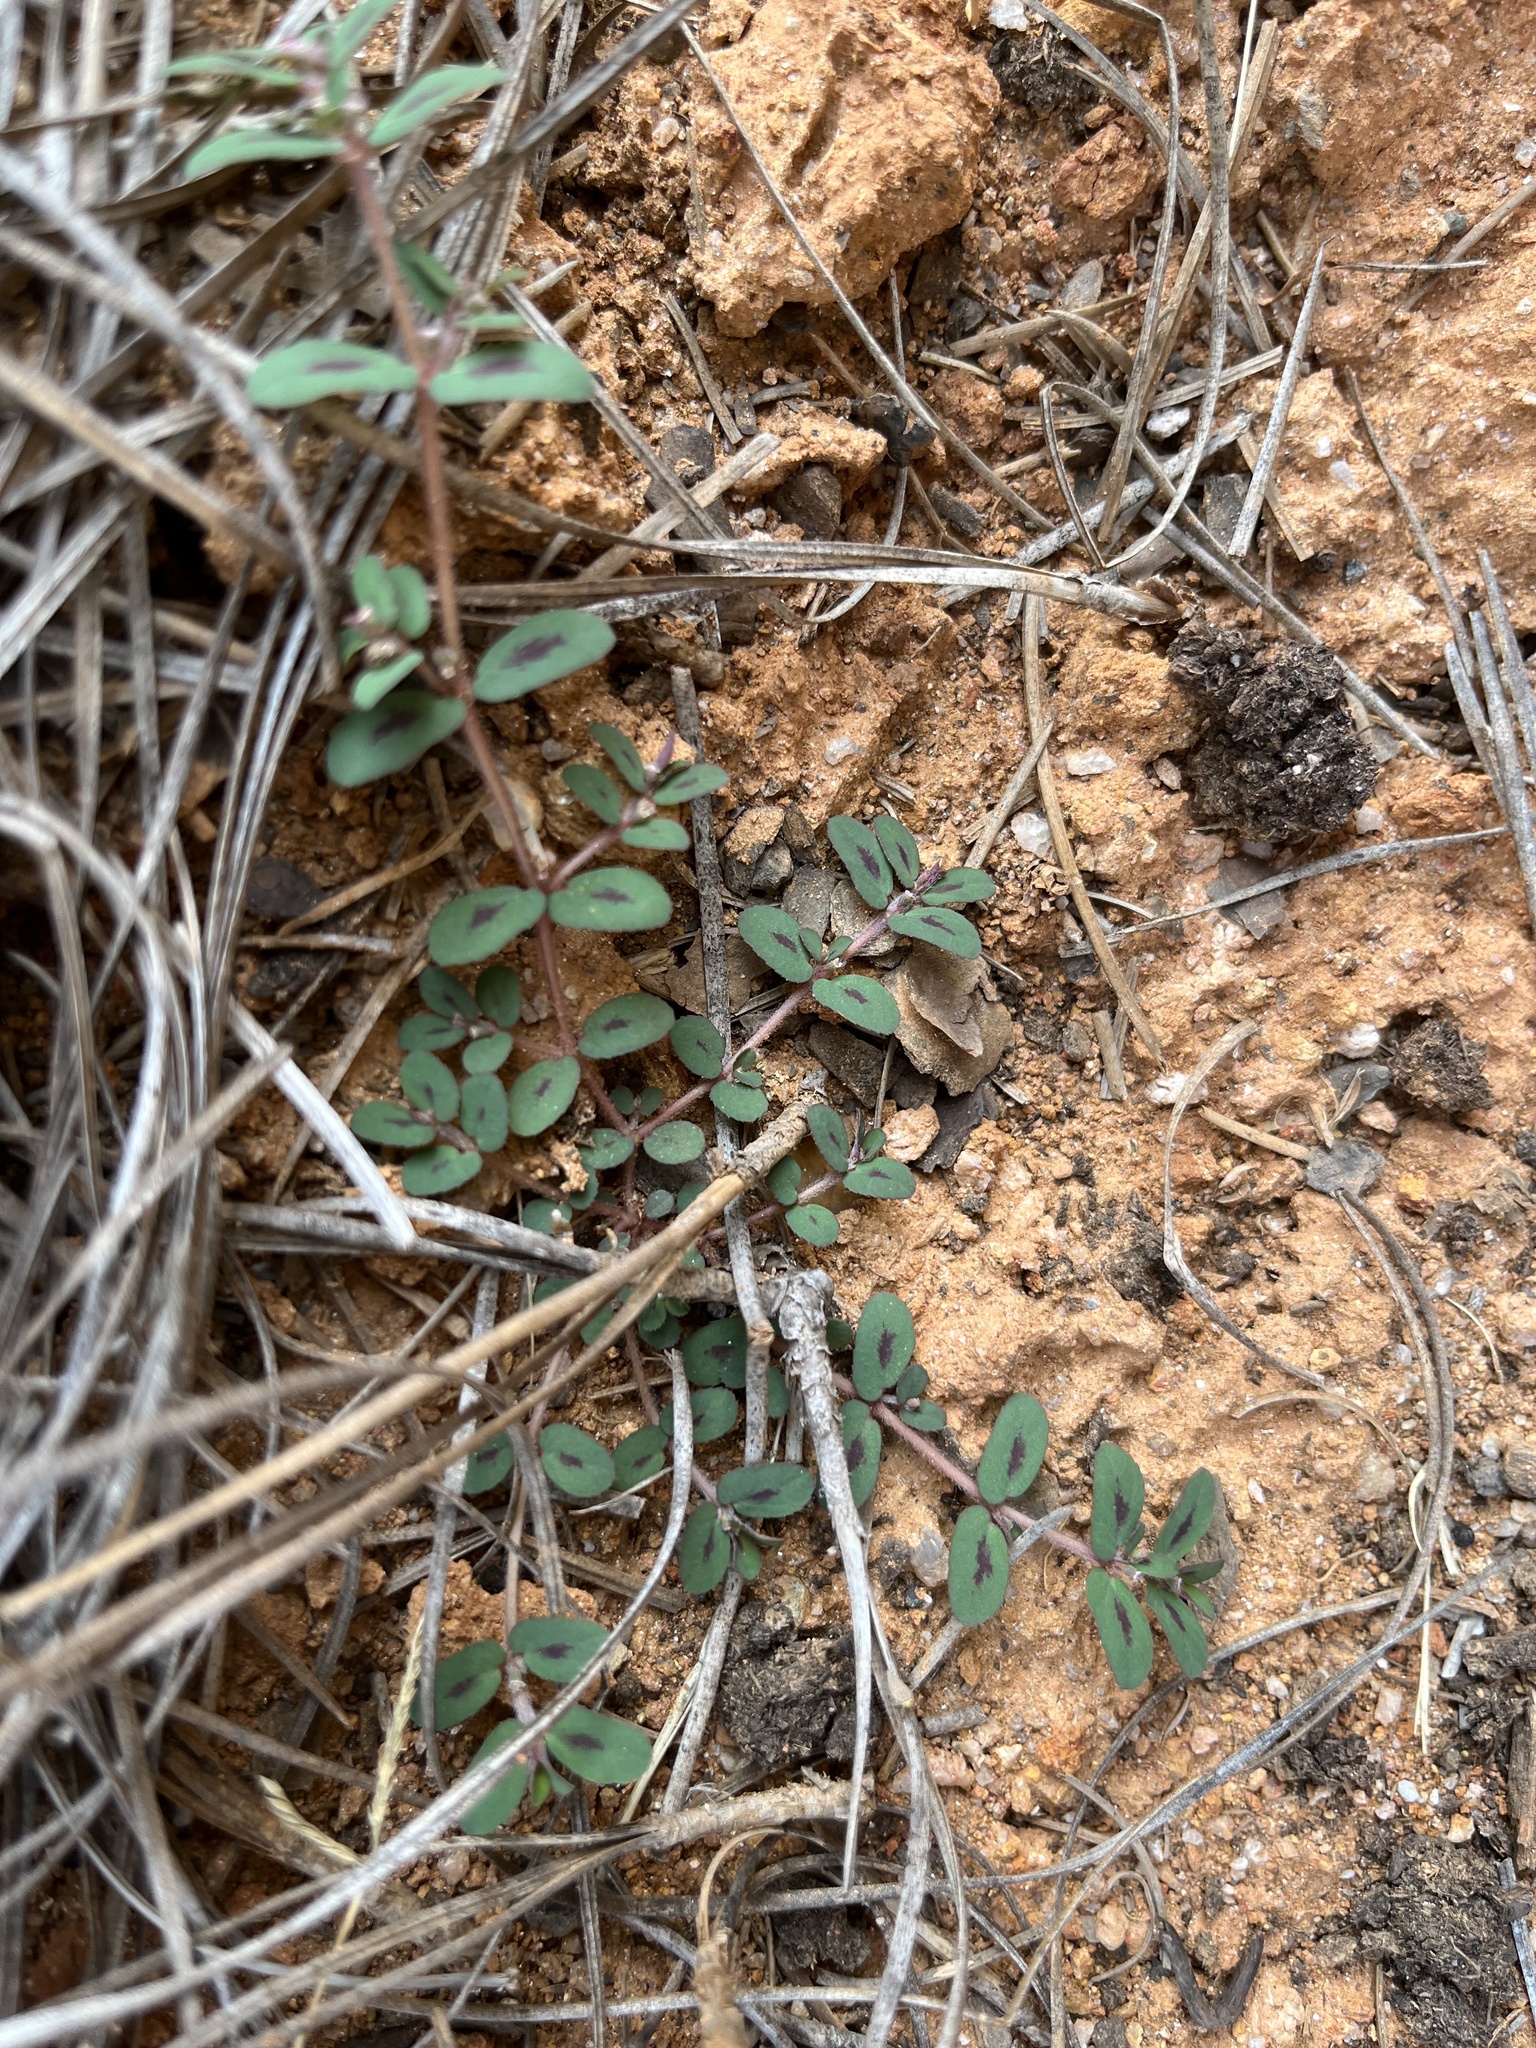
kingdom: Plantae
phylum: Tracheophyta
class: Magnoliopsida
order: Malpighiales
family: Euphorbiaceae
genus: Euphorbia
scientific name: Euphorbia maculata
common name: Spotted spurge
